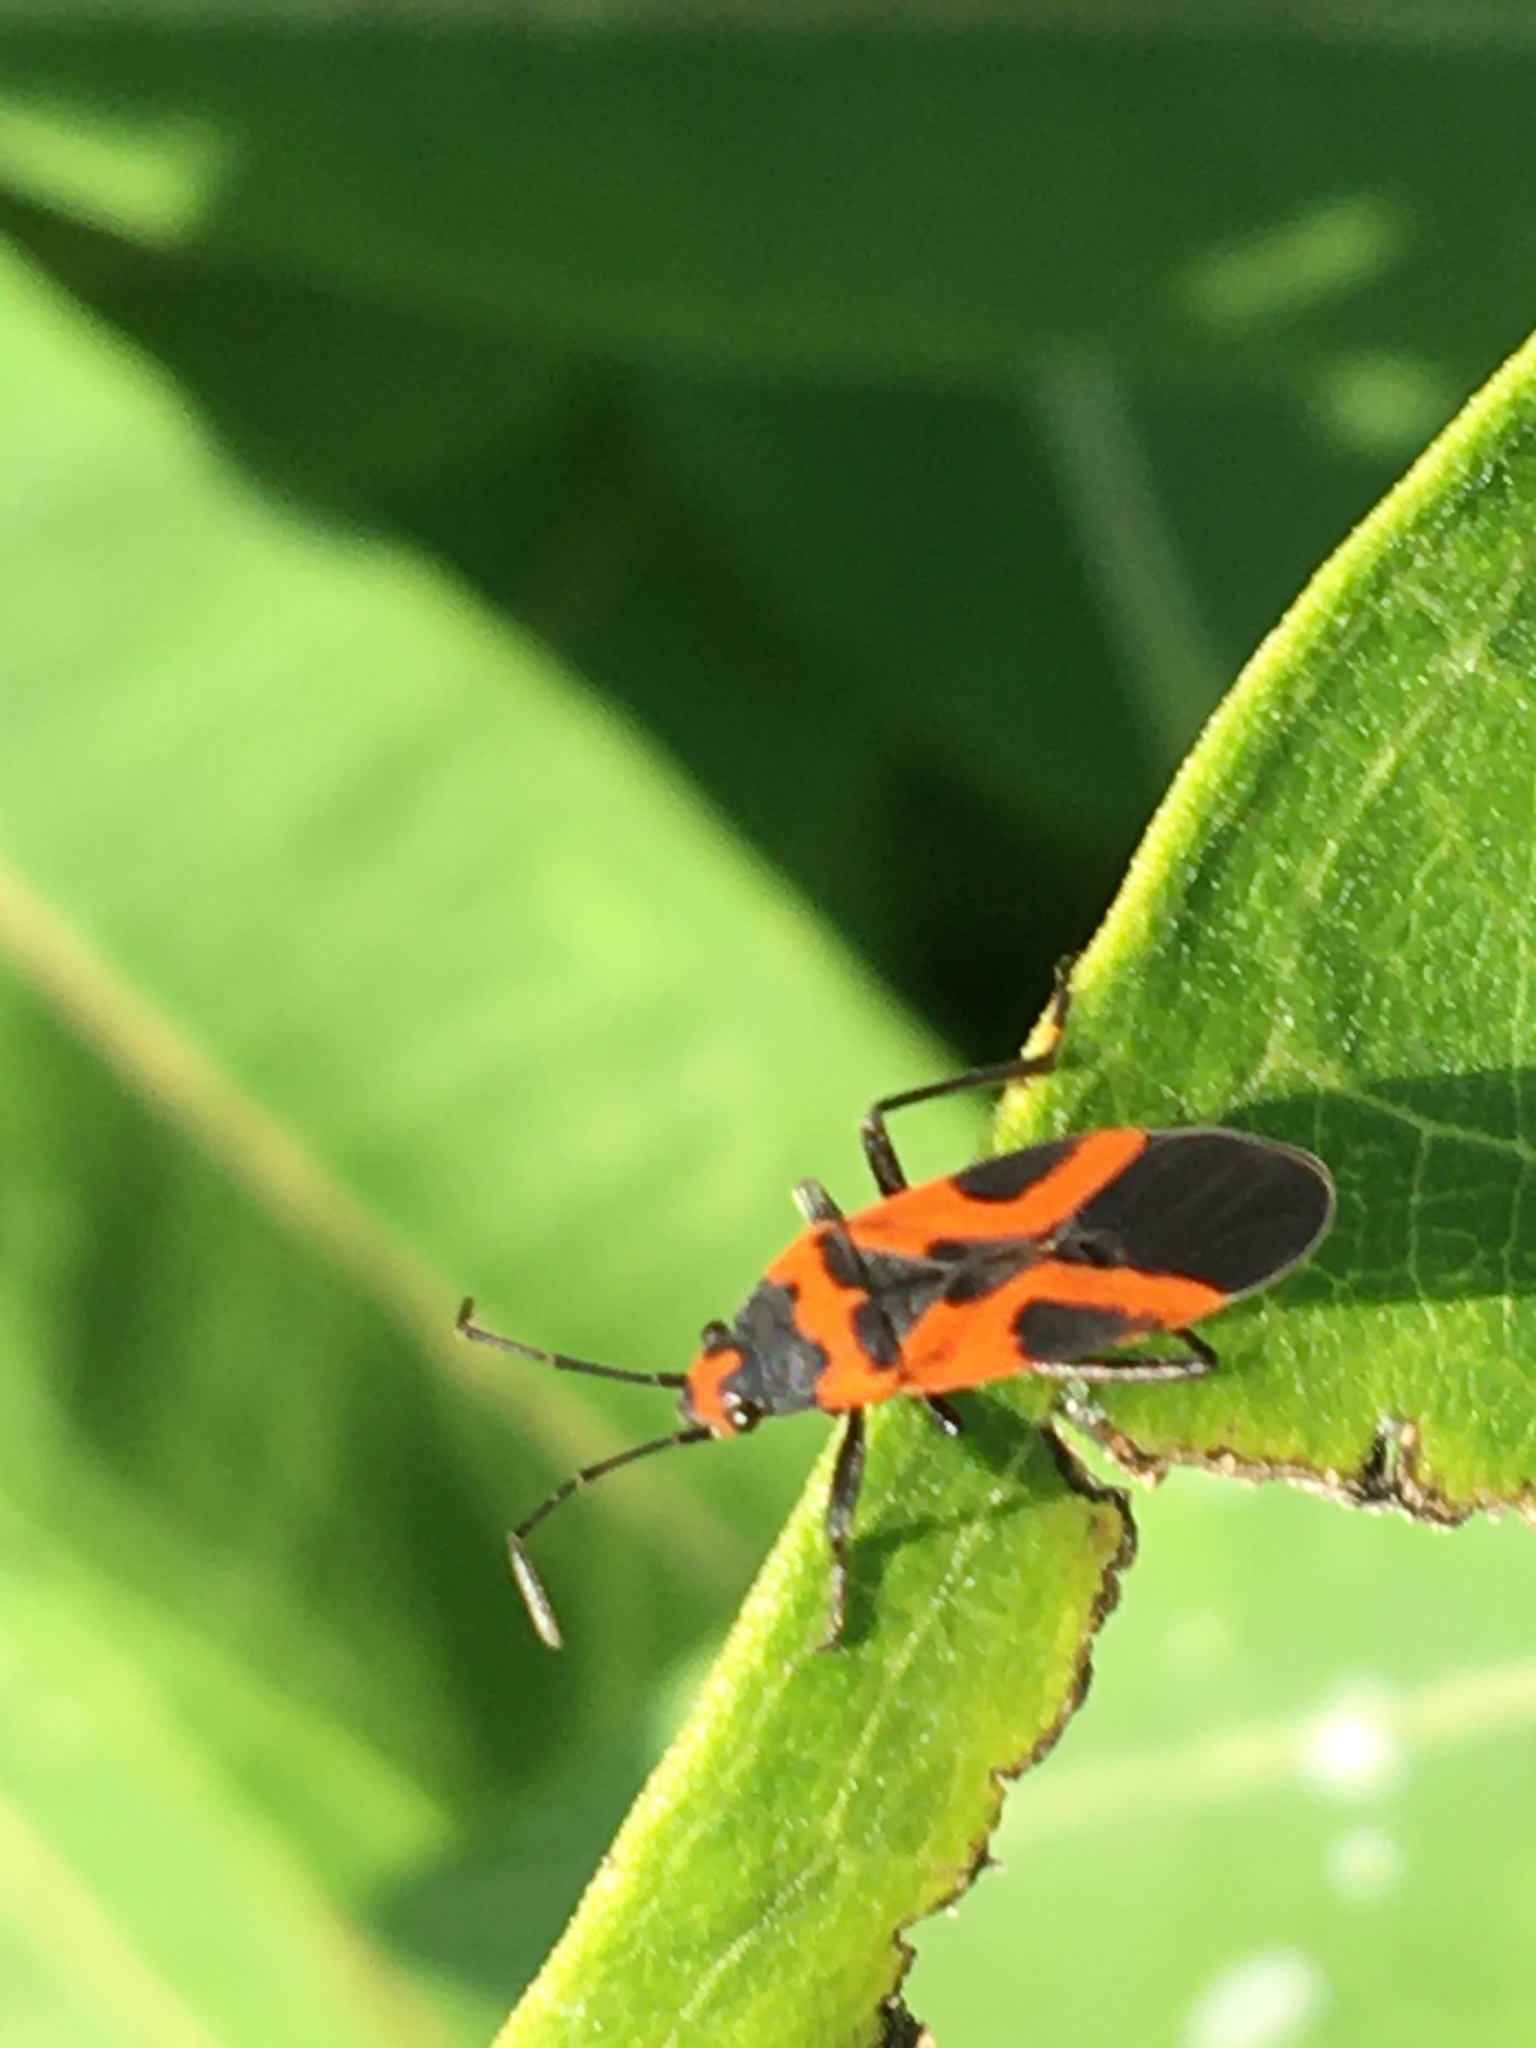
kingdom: Animalia
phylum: Arthropoda
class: Insecta
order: Hemiptera
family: Lygaeidae
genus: Lygaeus
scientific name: Lygaeus turcicus
